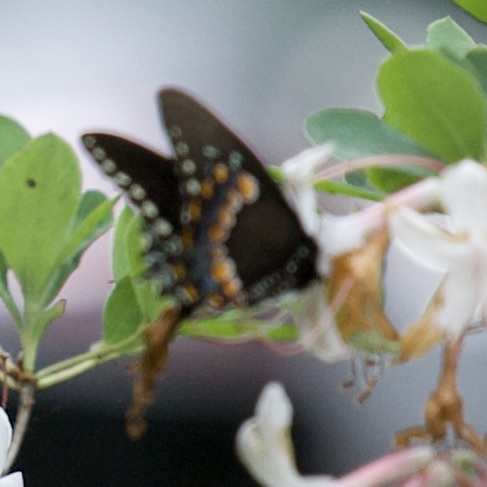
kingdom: Animalia
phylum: Arthropoda
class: Insecta
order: Lepidoptera
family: Papilionidae
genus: Papilio
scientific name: Papilio troilus
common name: Spicebush swallowtail
